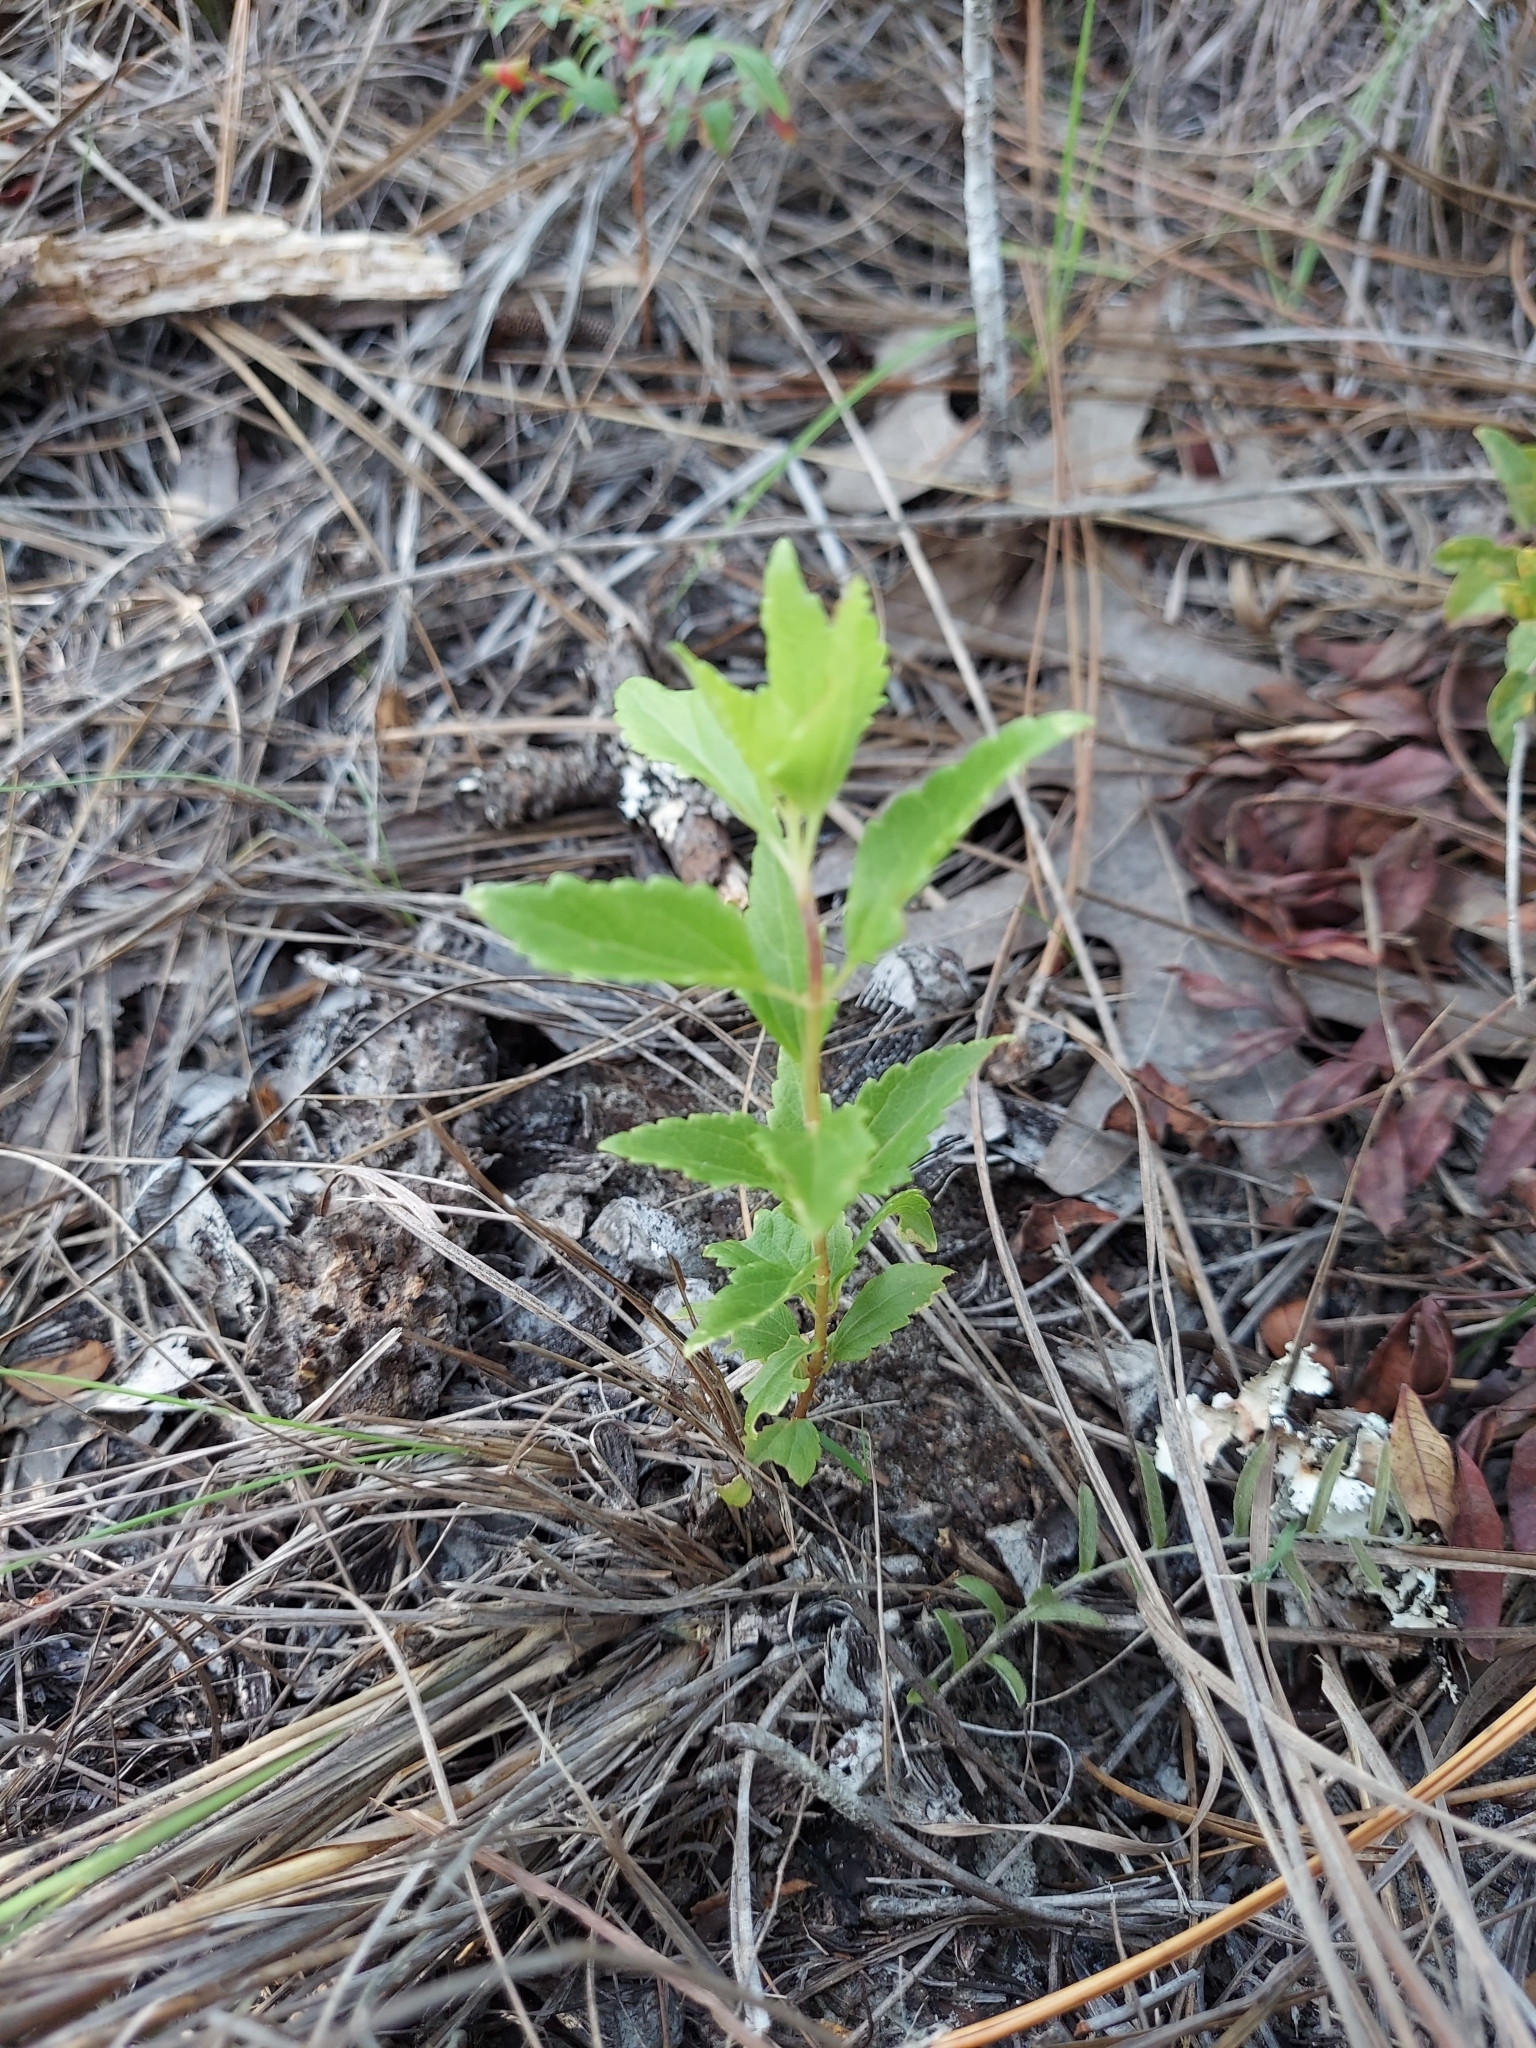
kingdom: Plantae
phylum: Tracheophyta
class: Magnoliopsida
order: Asterales
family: Asteraceae
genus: Ageratina
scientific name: Ageratina jucunda
